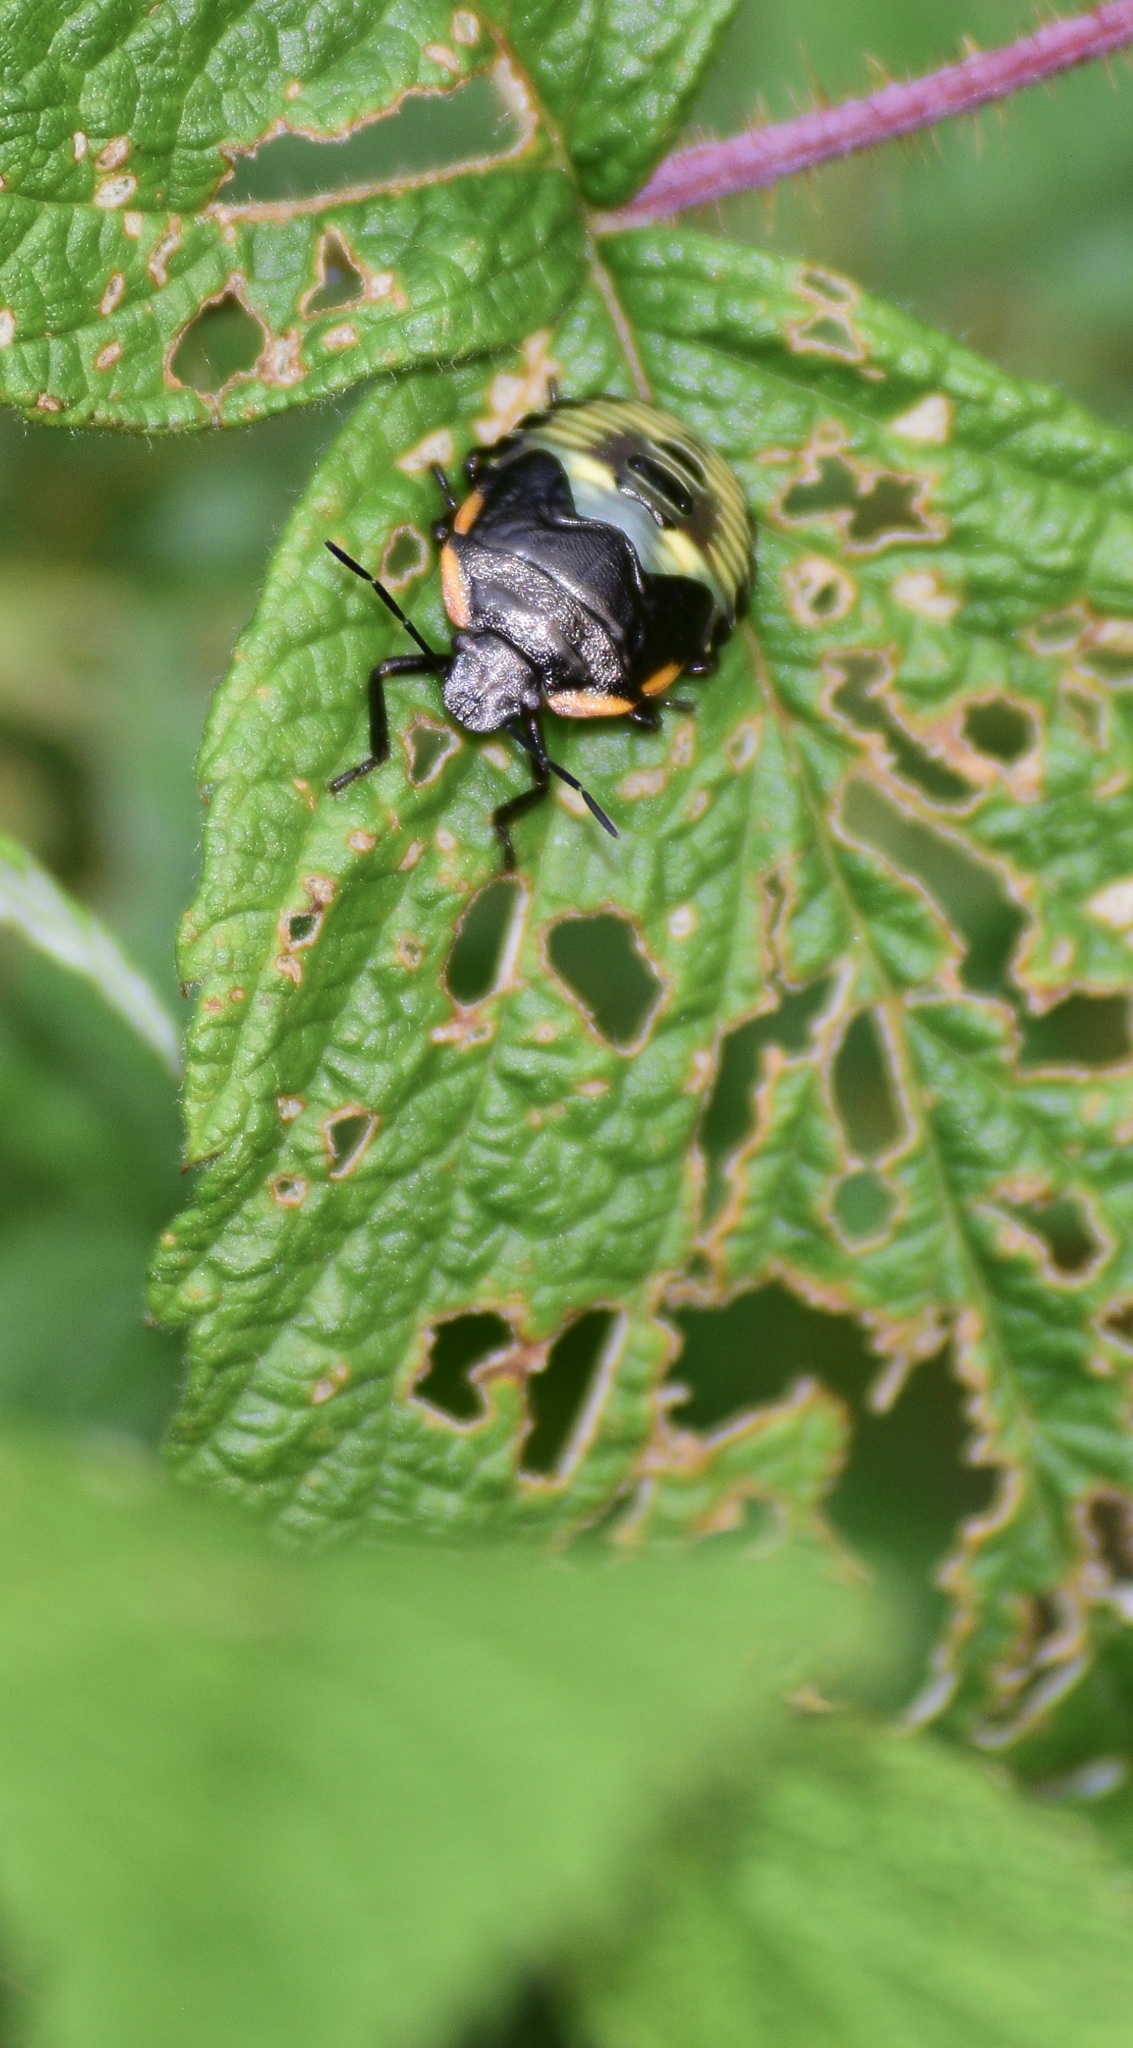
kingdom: Animalia
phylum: Arthropoda
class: Insecta
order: Hemiptera
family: Pentatomidae
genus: Chinavia
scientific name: Chinavia hilaris
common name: Green stink bug
